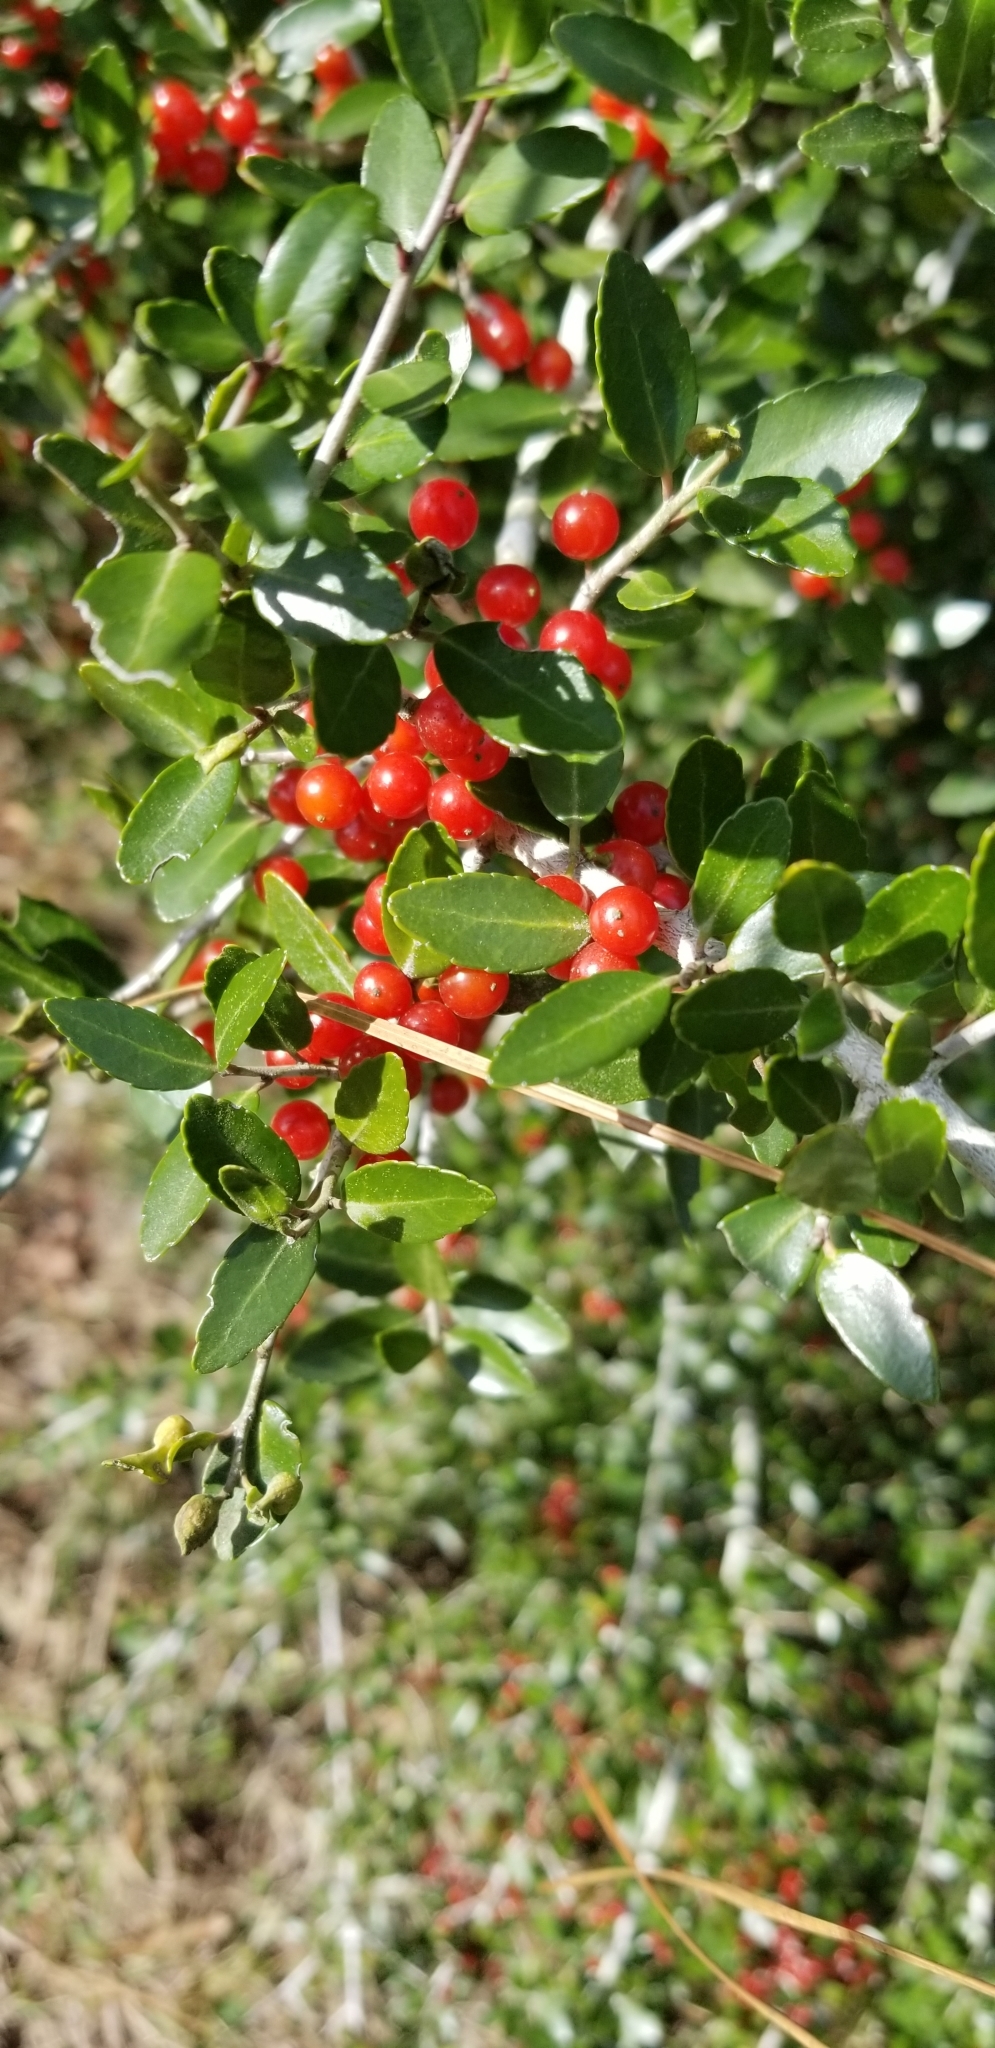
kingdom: Plantae
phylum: Tracheophyta
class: Magnoliopsida
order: Aquifoliales
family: Aquifoliaceae
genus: Ilex
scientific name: Ilex vomitoria
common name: Yaupon holly
